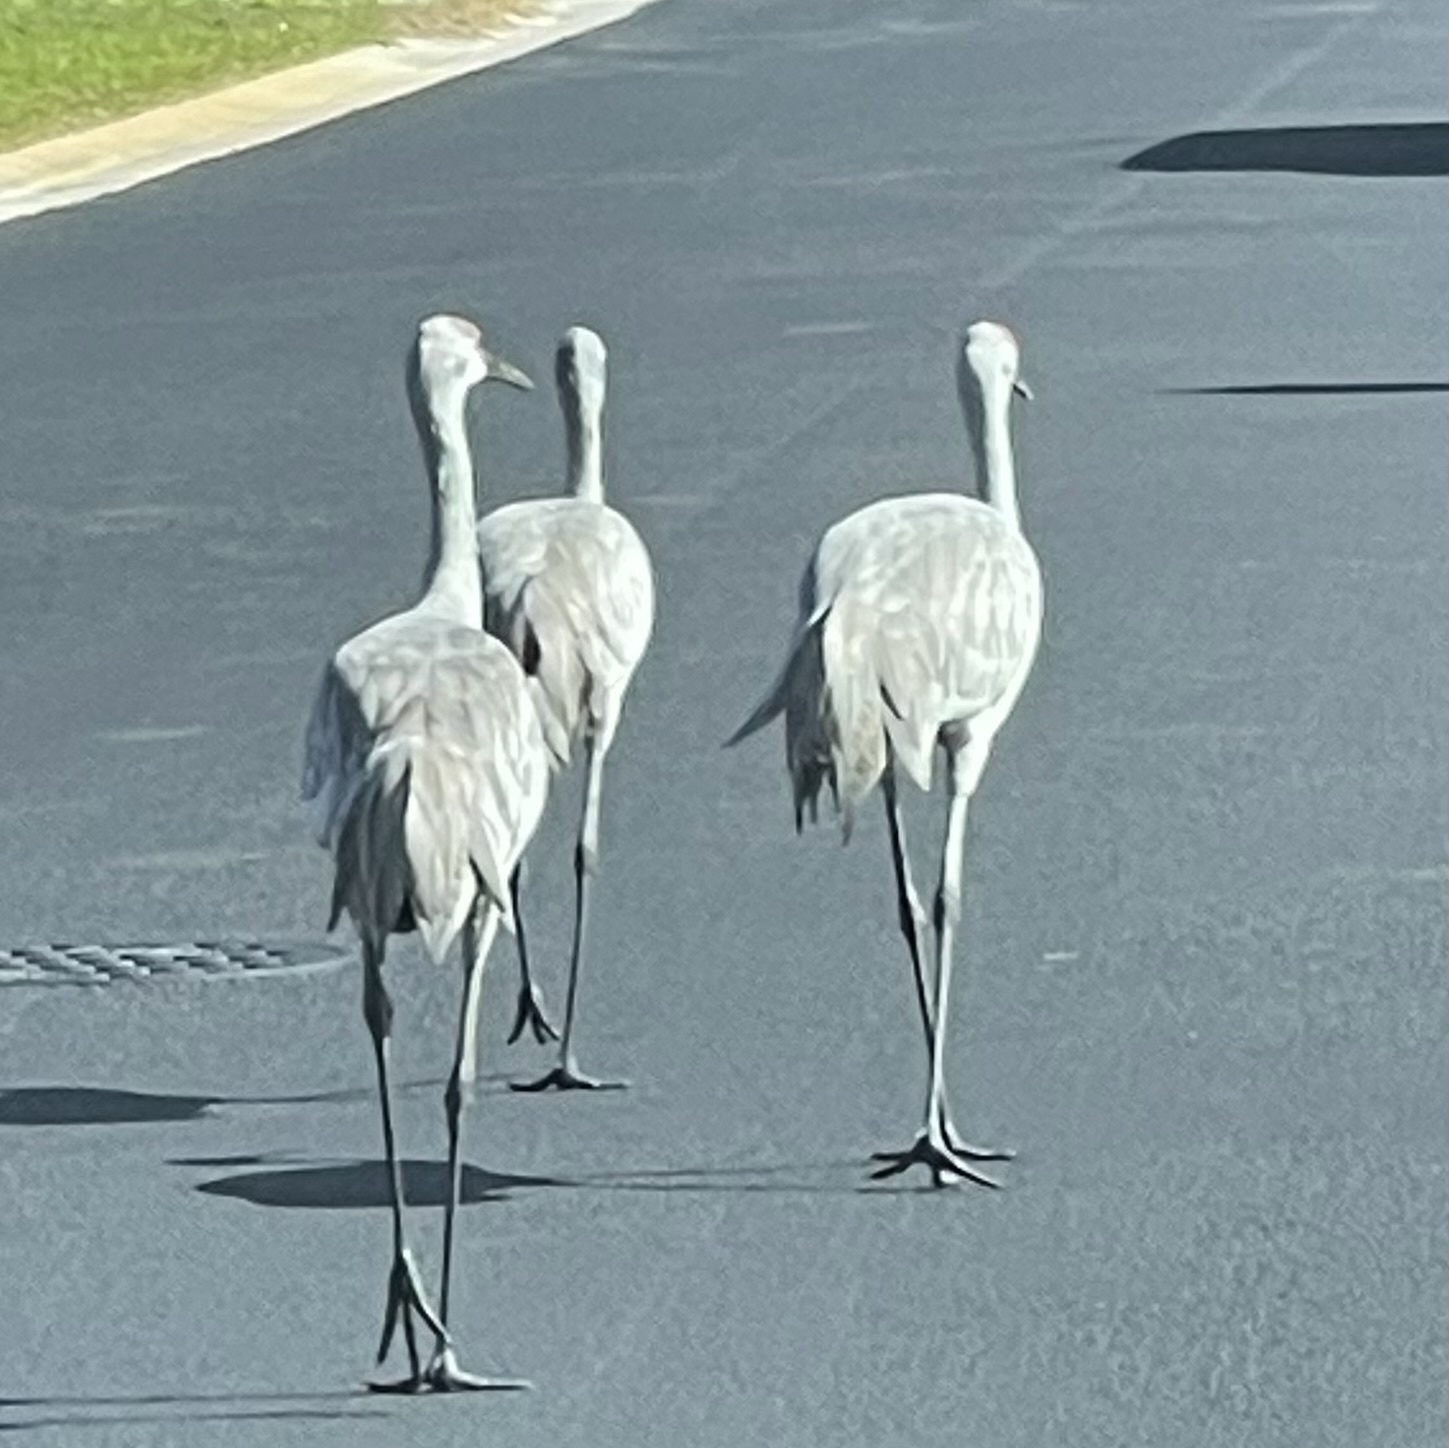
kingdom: Animalia
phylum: Chordata
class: Aves
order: Gruiformes
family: Gruidae
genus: Grus
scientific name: Grus canadensis
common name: Sandhill crane
